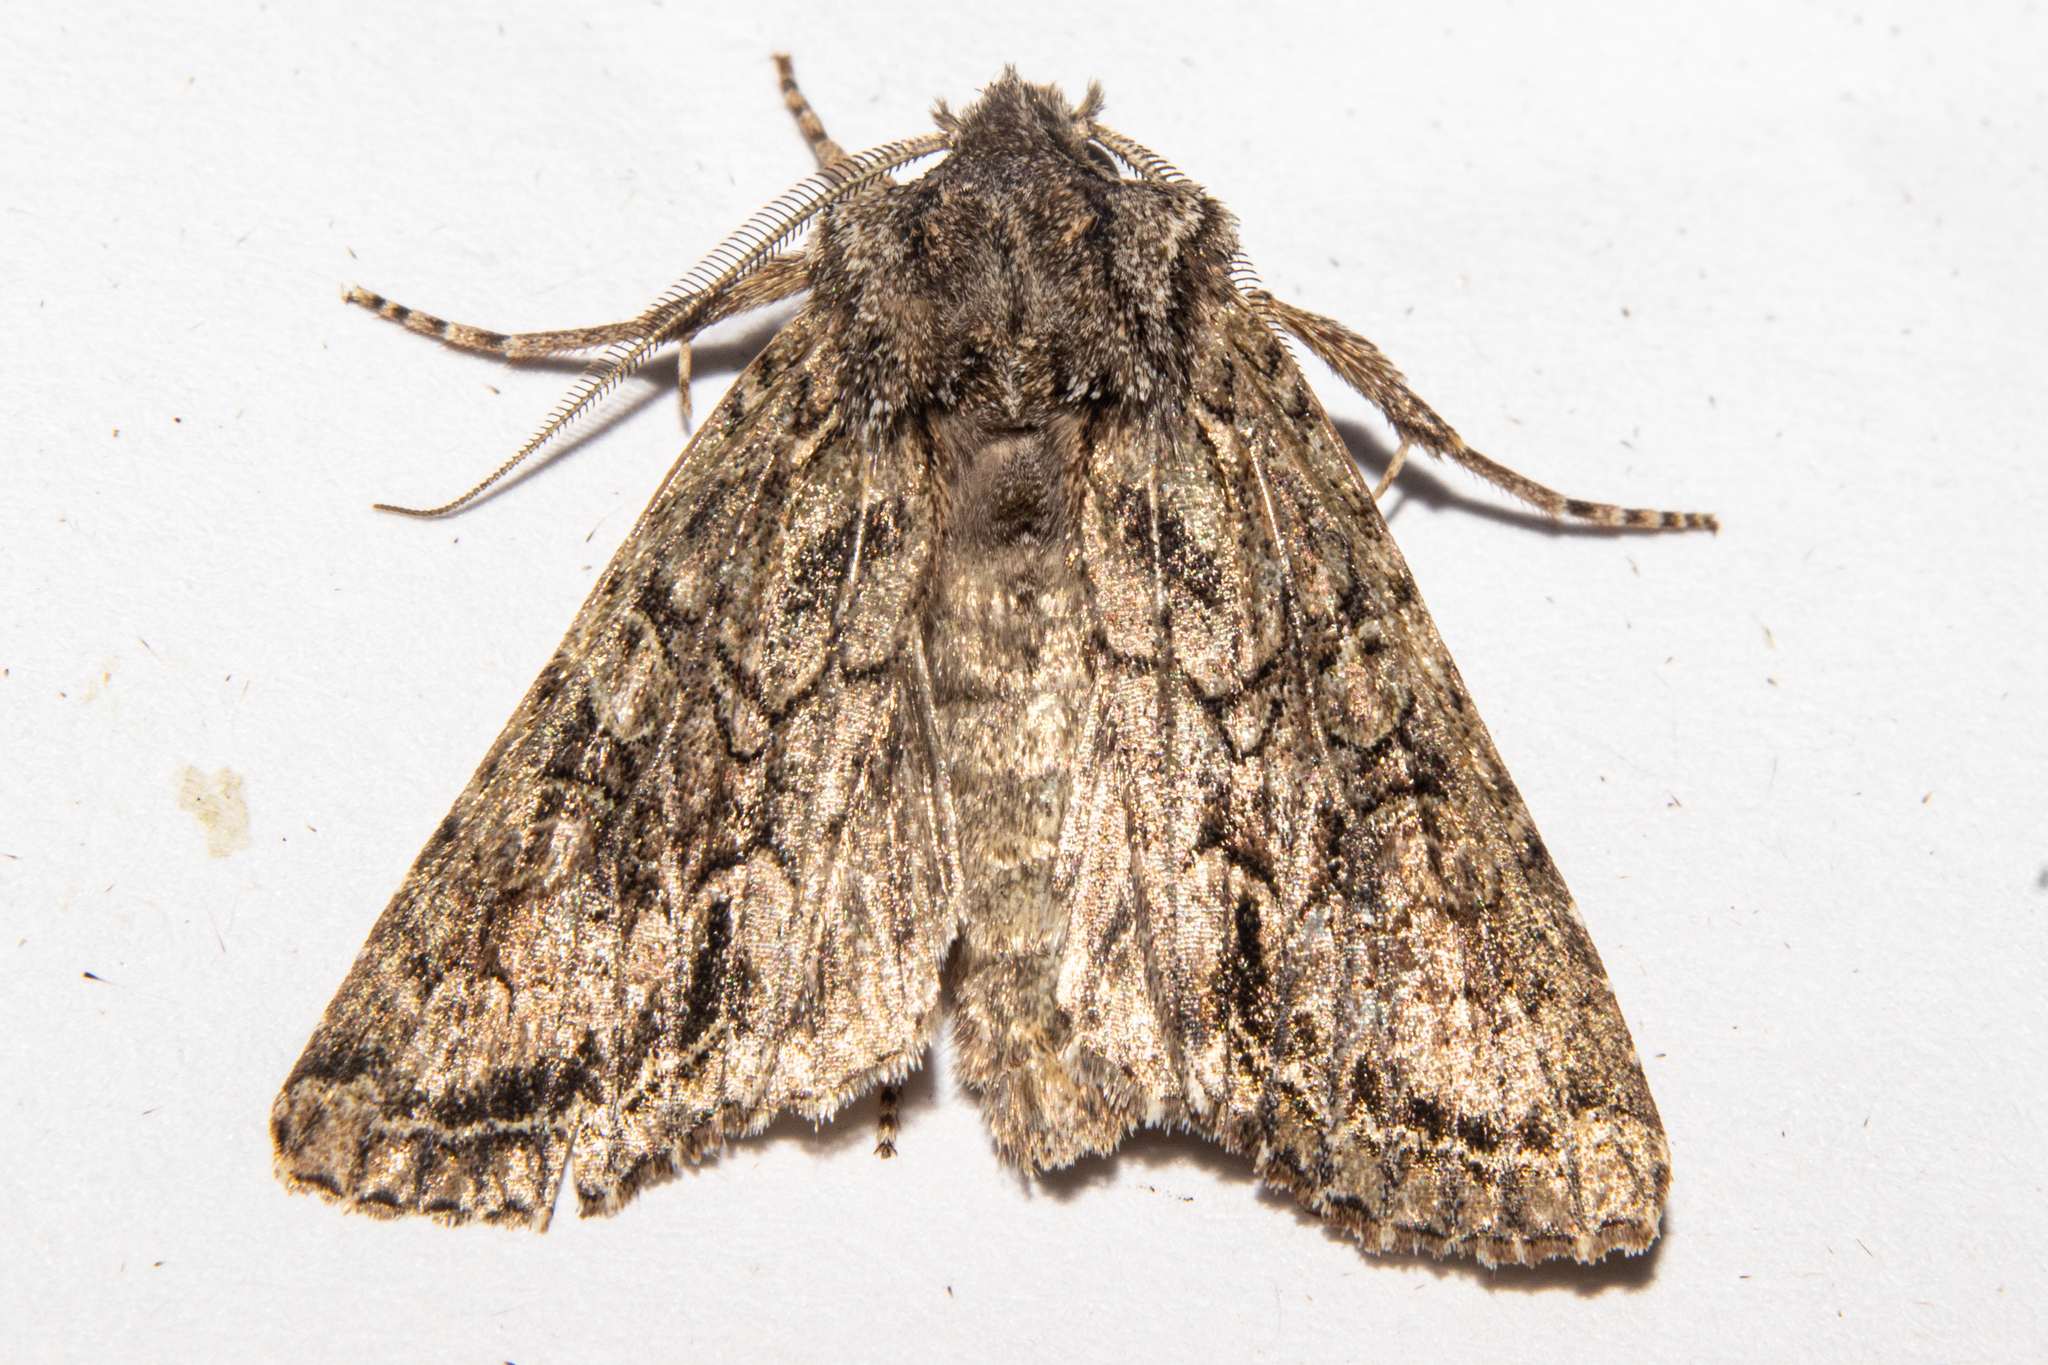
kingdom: Animalia
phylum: Arthropoda
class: Insecta
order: Lepidoptera
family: Noctuidae
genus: Ichneutica
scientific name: Ichneutica mutans
